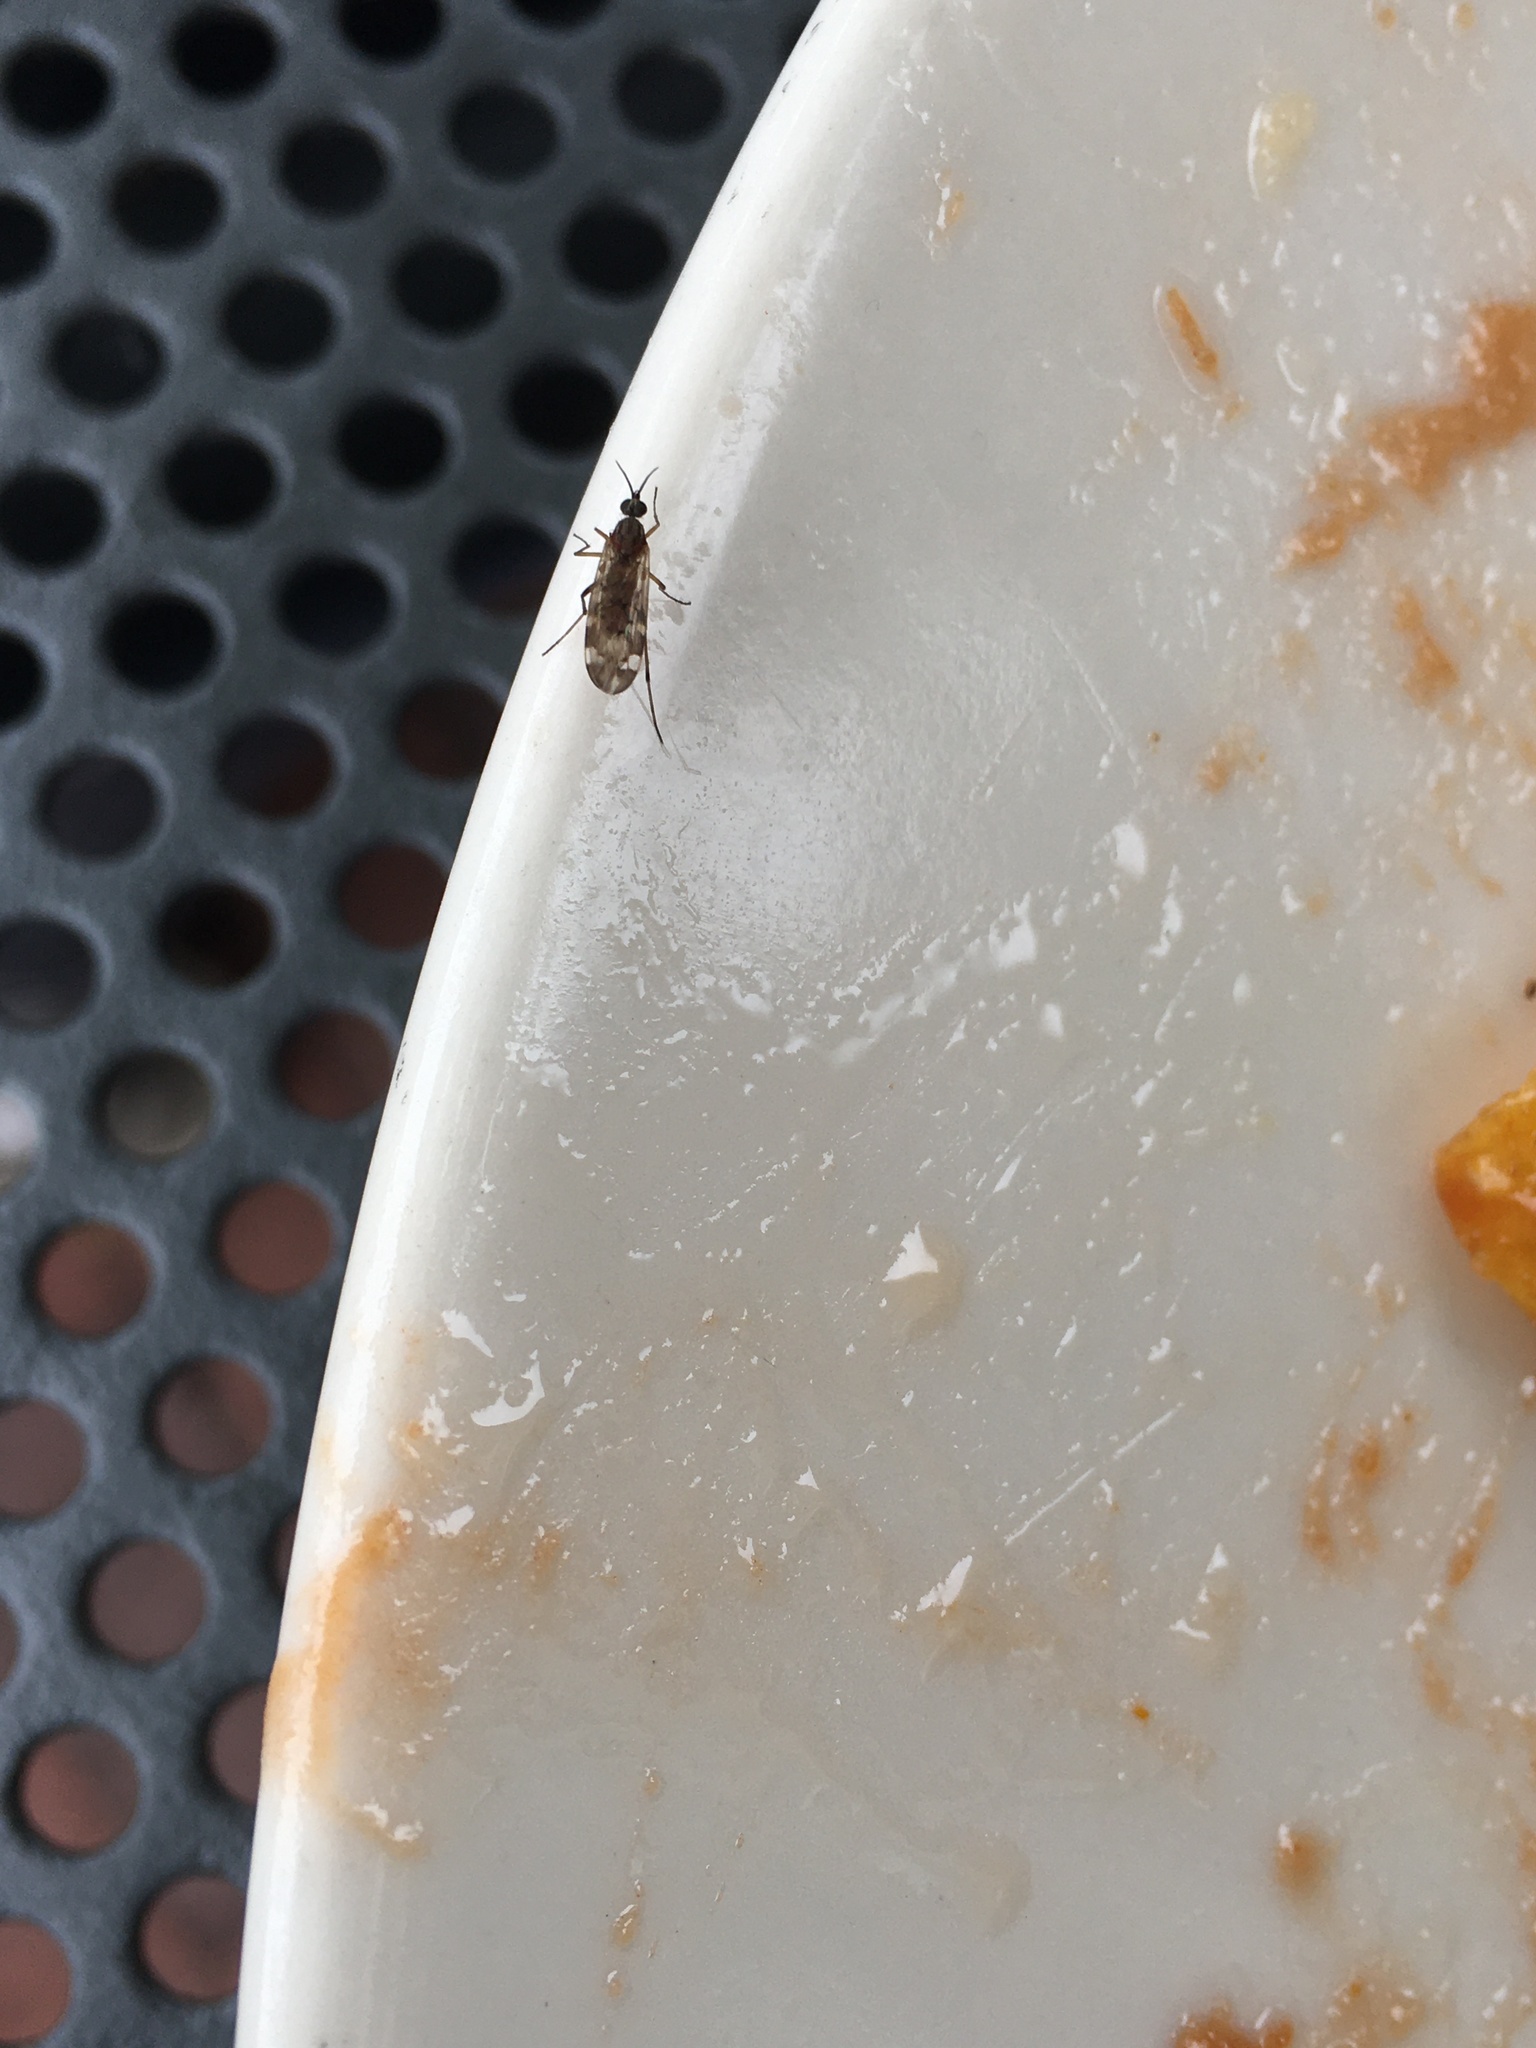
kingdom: Animalia
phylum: Arthropoda
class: Insecta
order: Diptera
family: Anisopodidae
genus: Sylvicola
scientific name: Sylvicola alternata
